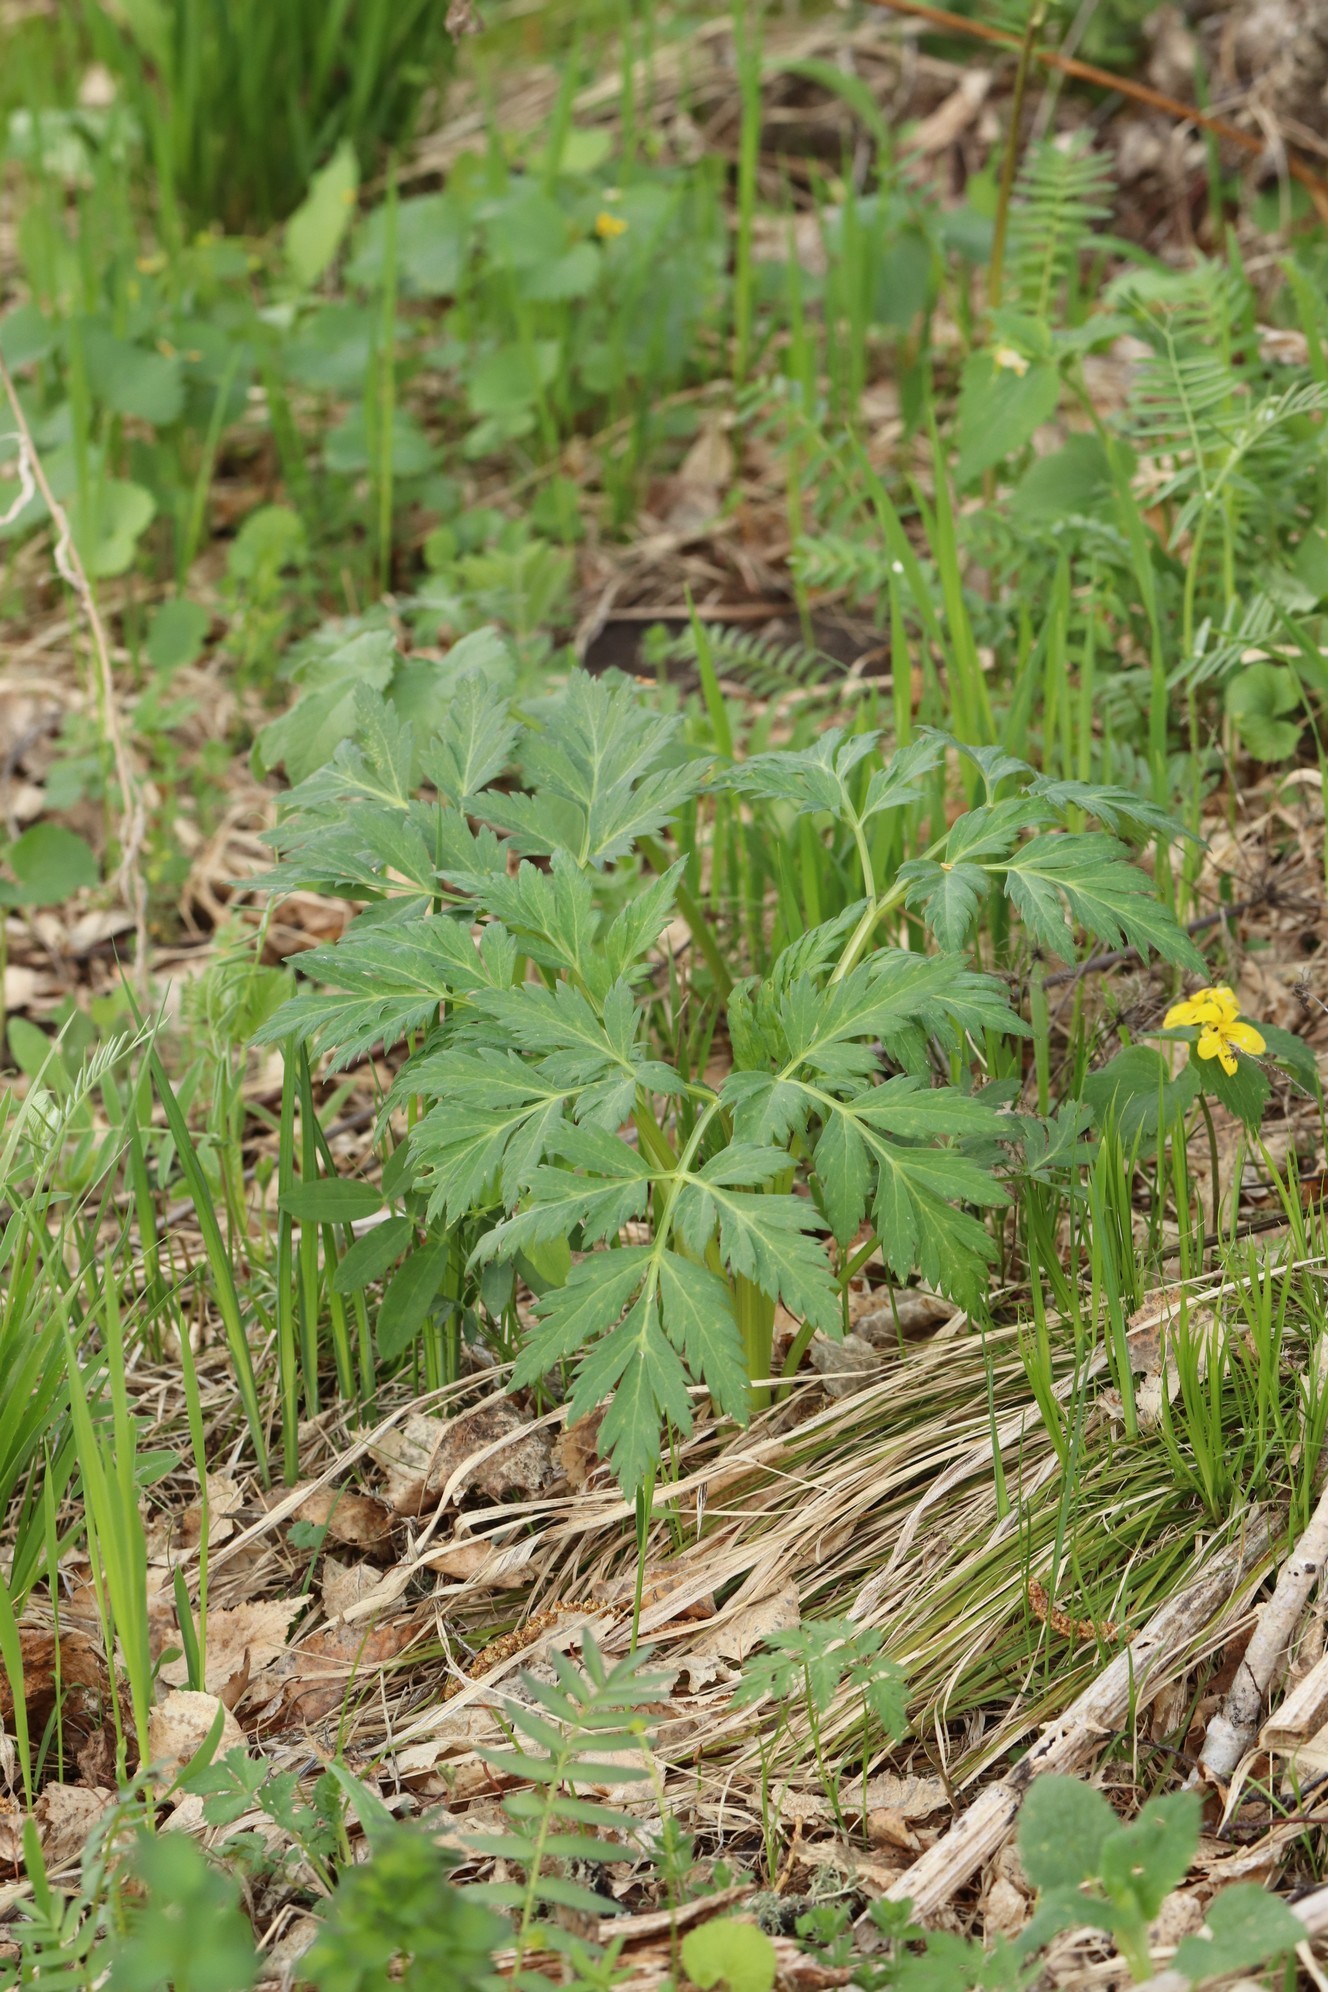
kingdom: Plantae
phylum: Tracheophyta
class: Magnoliopsida
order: Apiales
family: Apiaceae
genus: Pleurospermum
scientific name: Pleurospermum uralense
